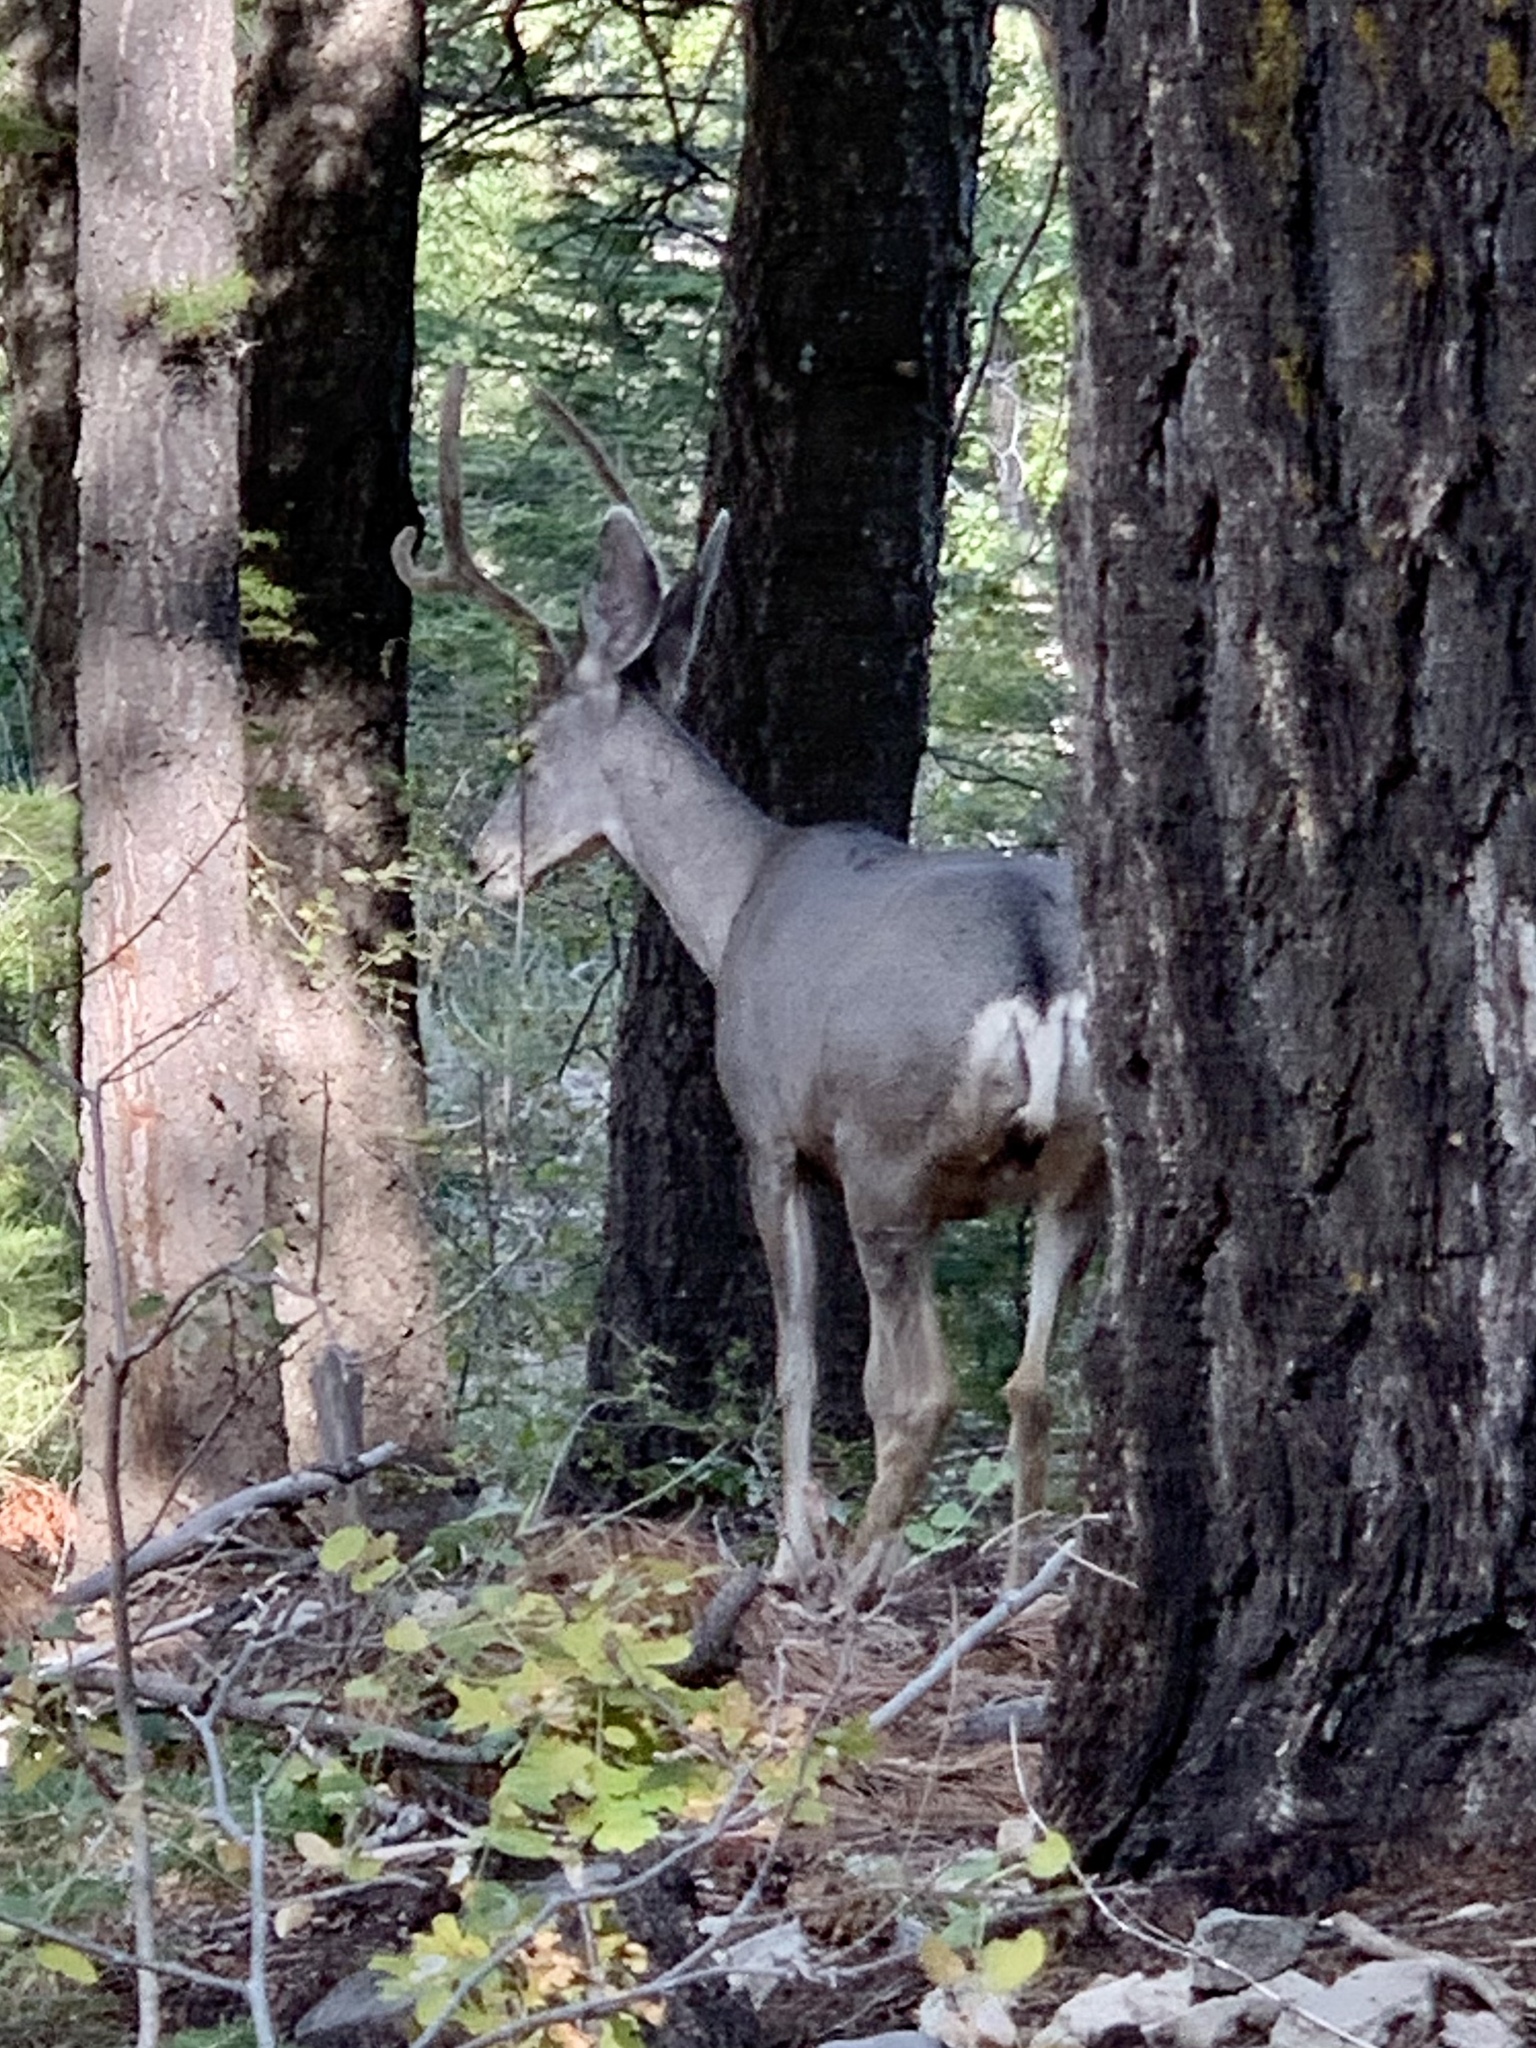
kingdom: Animalia
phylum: Chordata
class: Mammalia
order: Artiodactyla
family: Cervidae
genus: Odocoileus
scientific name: Odocoileus hemionus
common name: Mule deer
